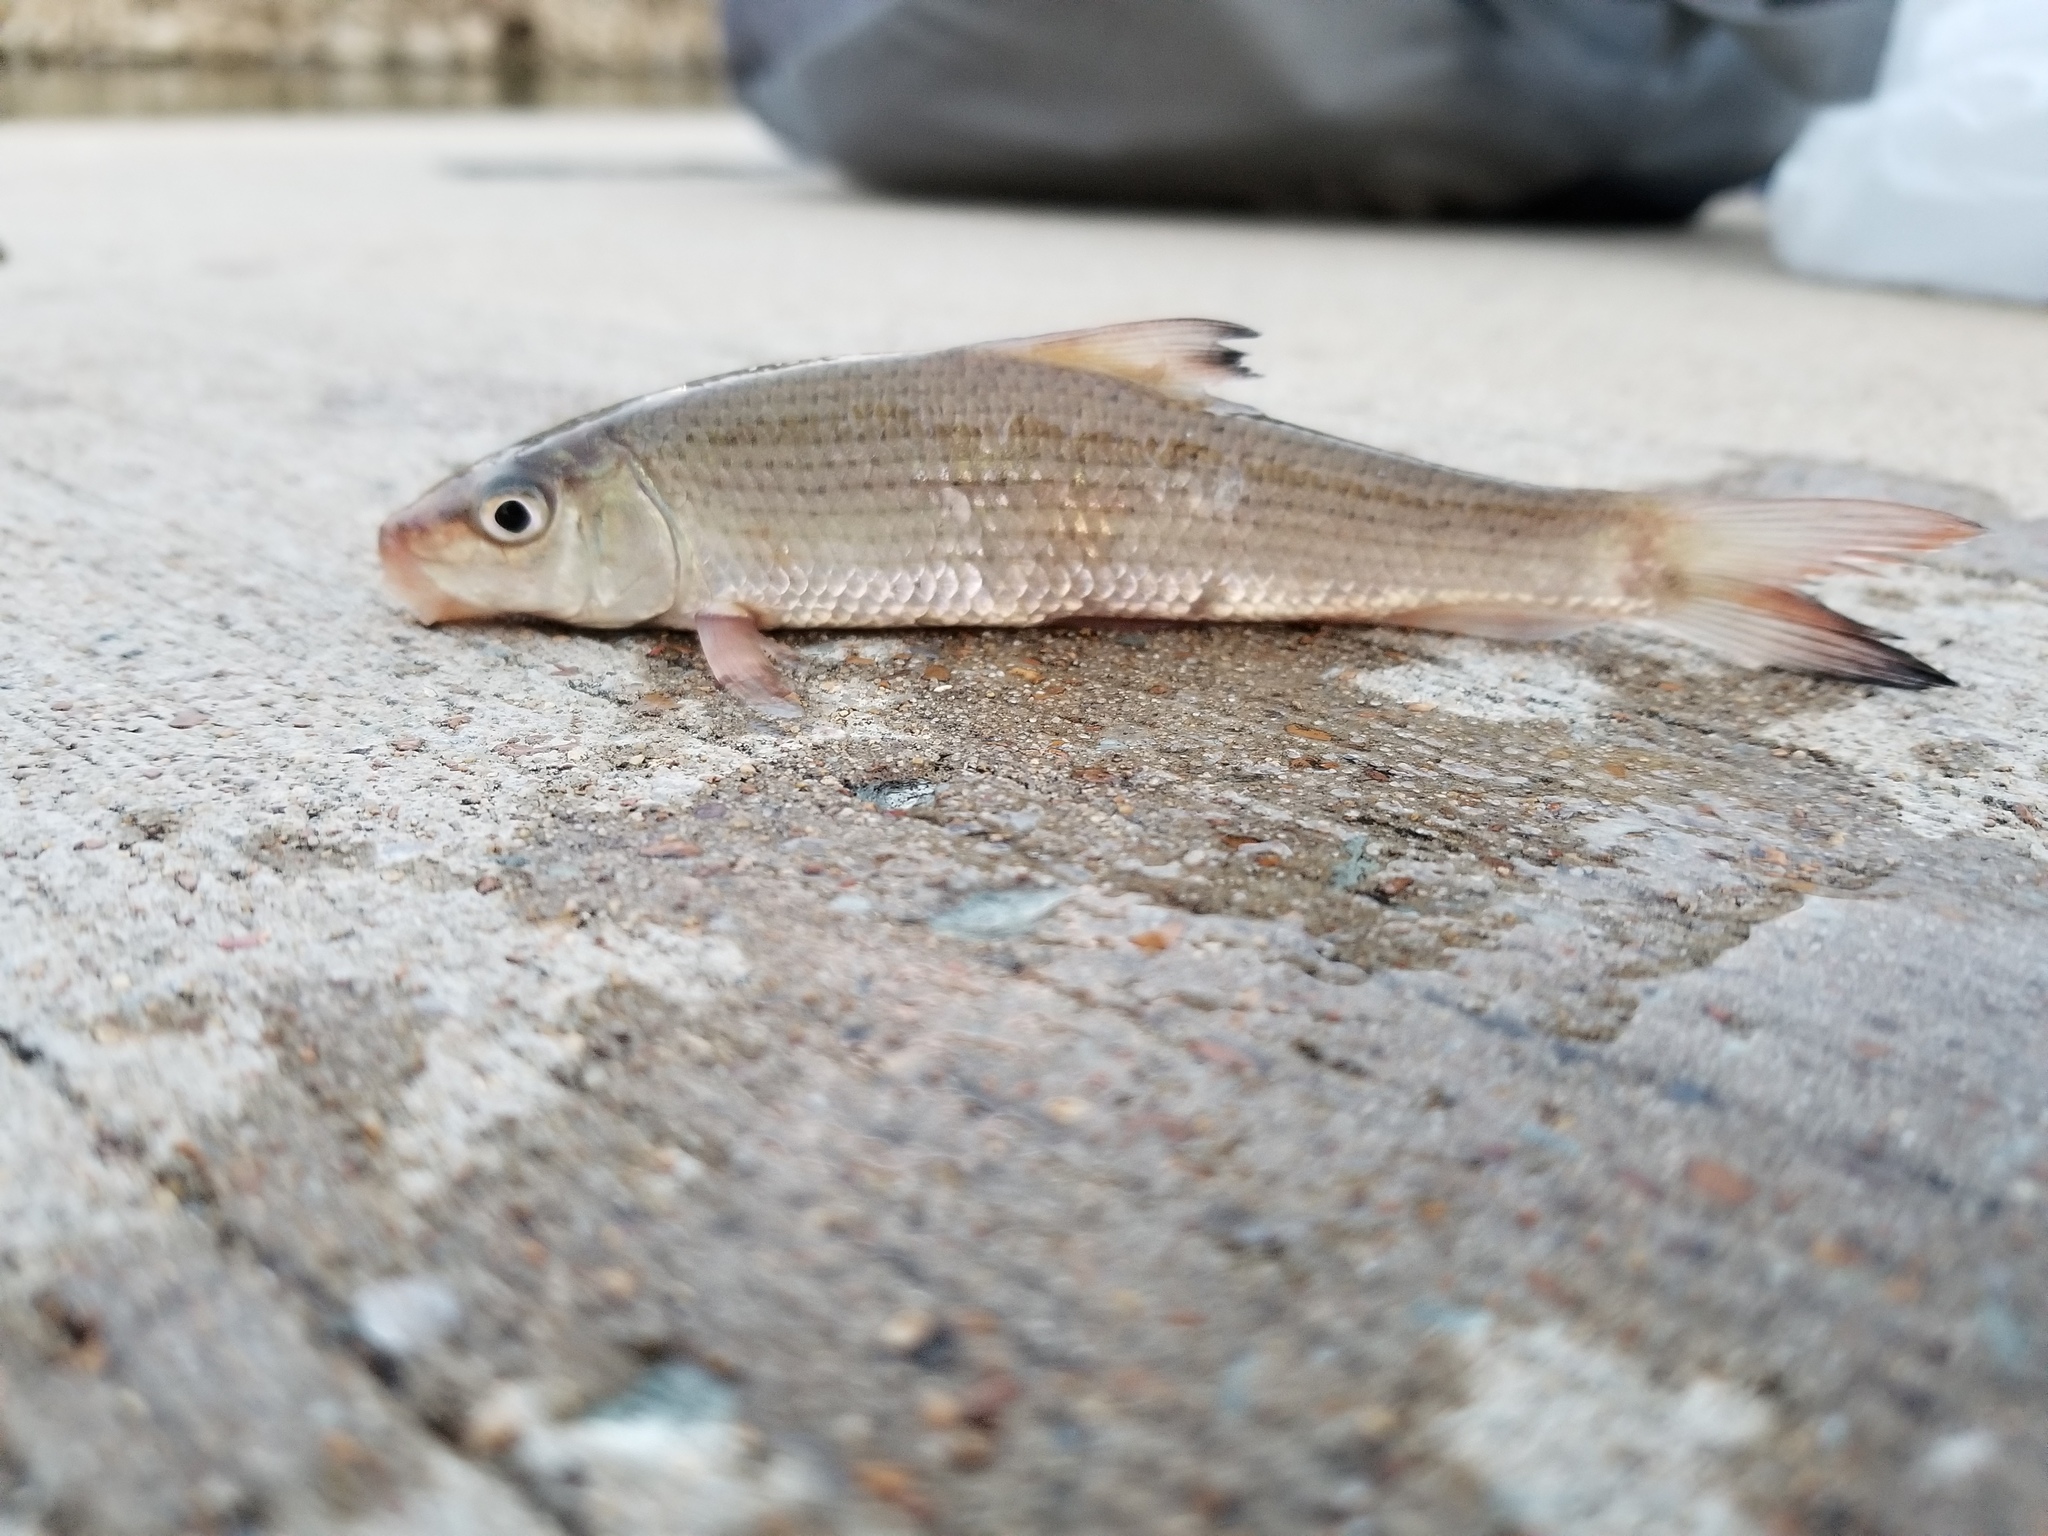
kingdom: Animalia
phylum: Chordata
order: Cypriniformes
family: Catostomidae
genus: Minytrema
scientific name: Minytrema melanops
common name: Spotted sucker
